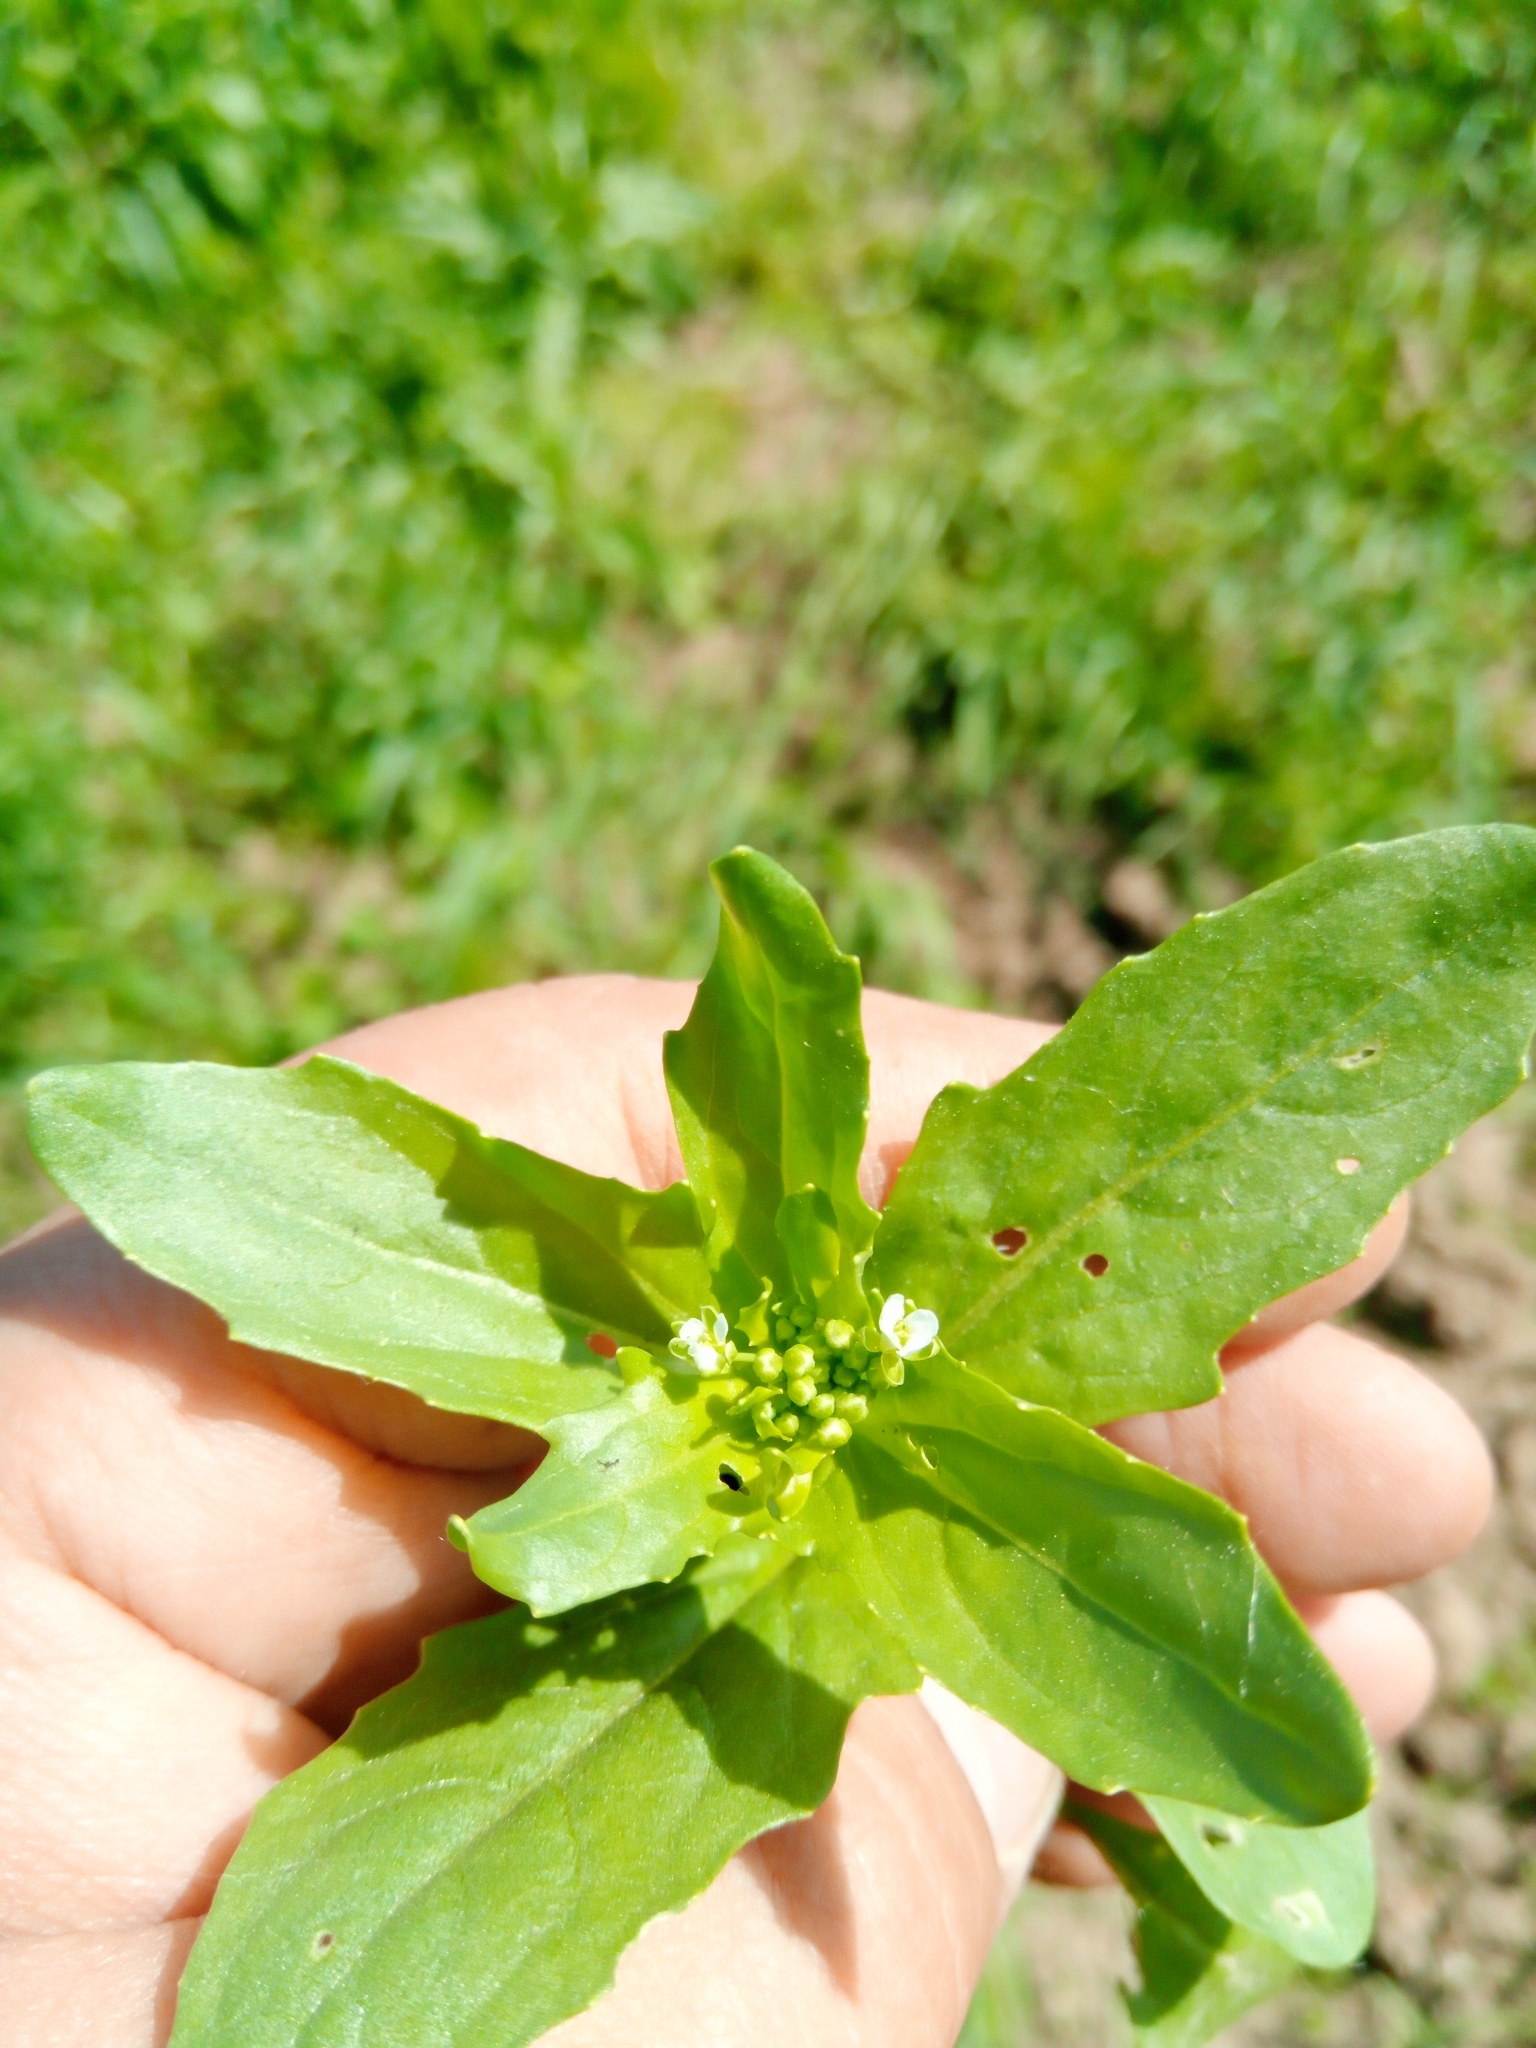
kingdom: Plantae
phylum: Tracheophyta
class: Magnoliopsida
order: Brassicales
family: Brassicaceae
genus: Thlaspi
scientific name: Thlaspi arvense
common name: Field pennycress
